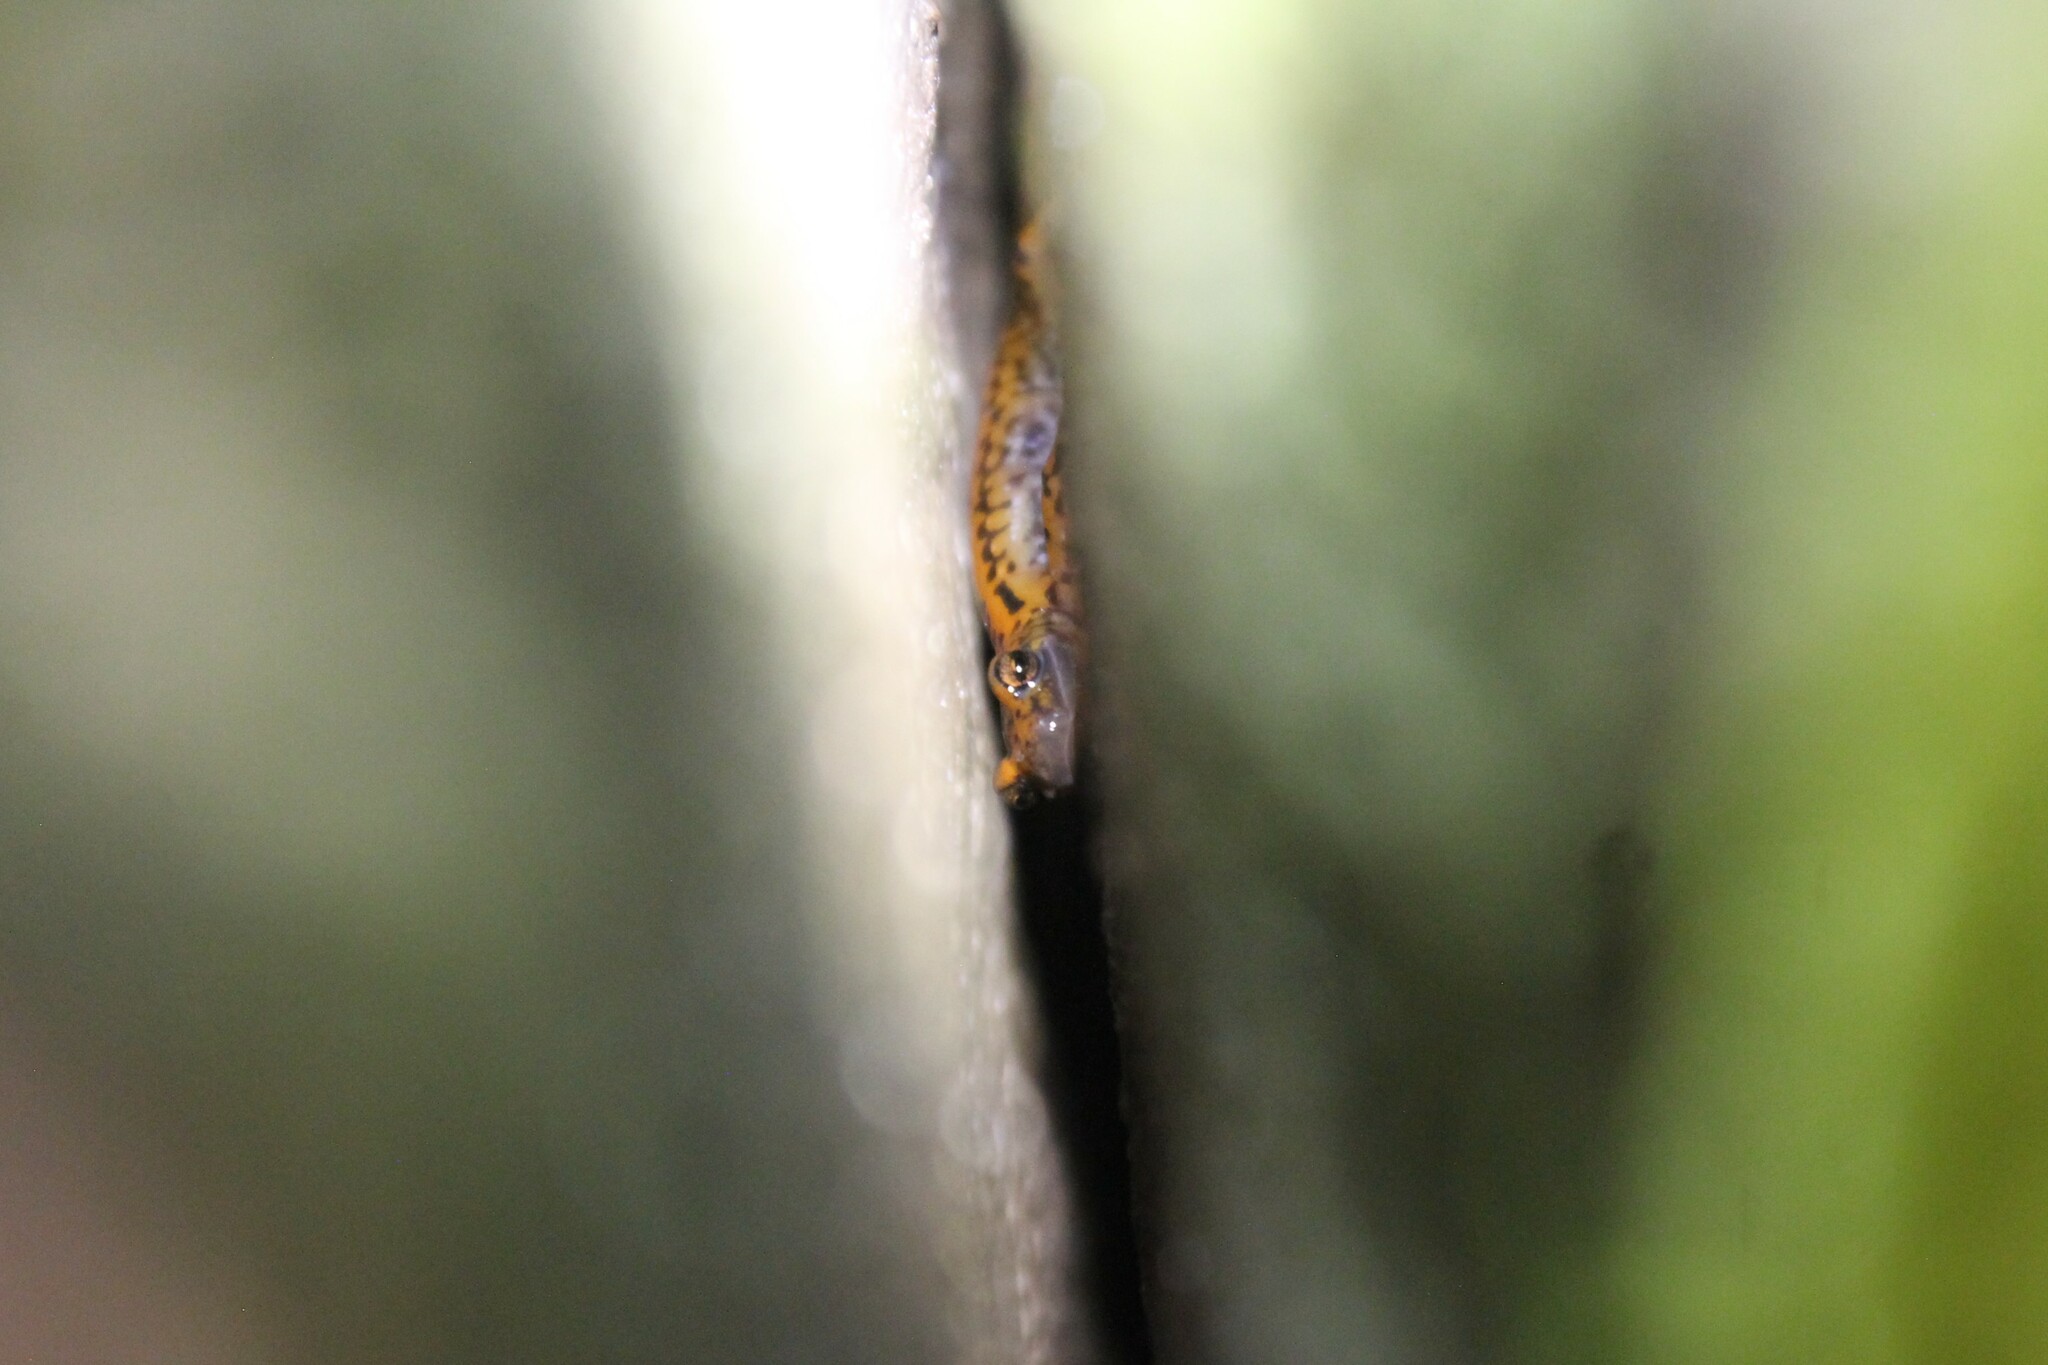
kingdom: Animalia
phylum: Chordata
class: Amphibia
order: Caudata
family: Plethodontidae
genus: Eurycea
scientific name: Eurycea lucifuga
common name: Cave salamander
